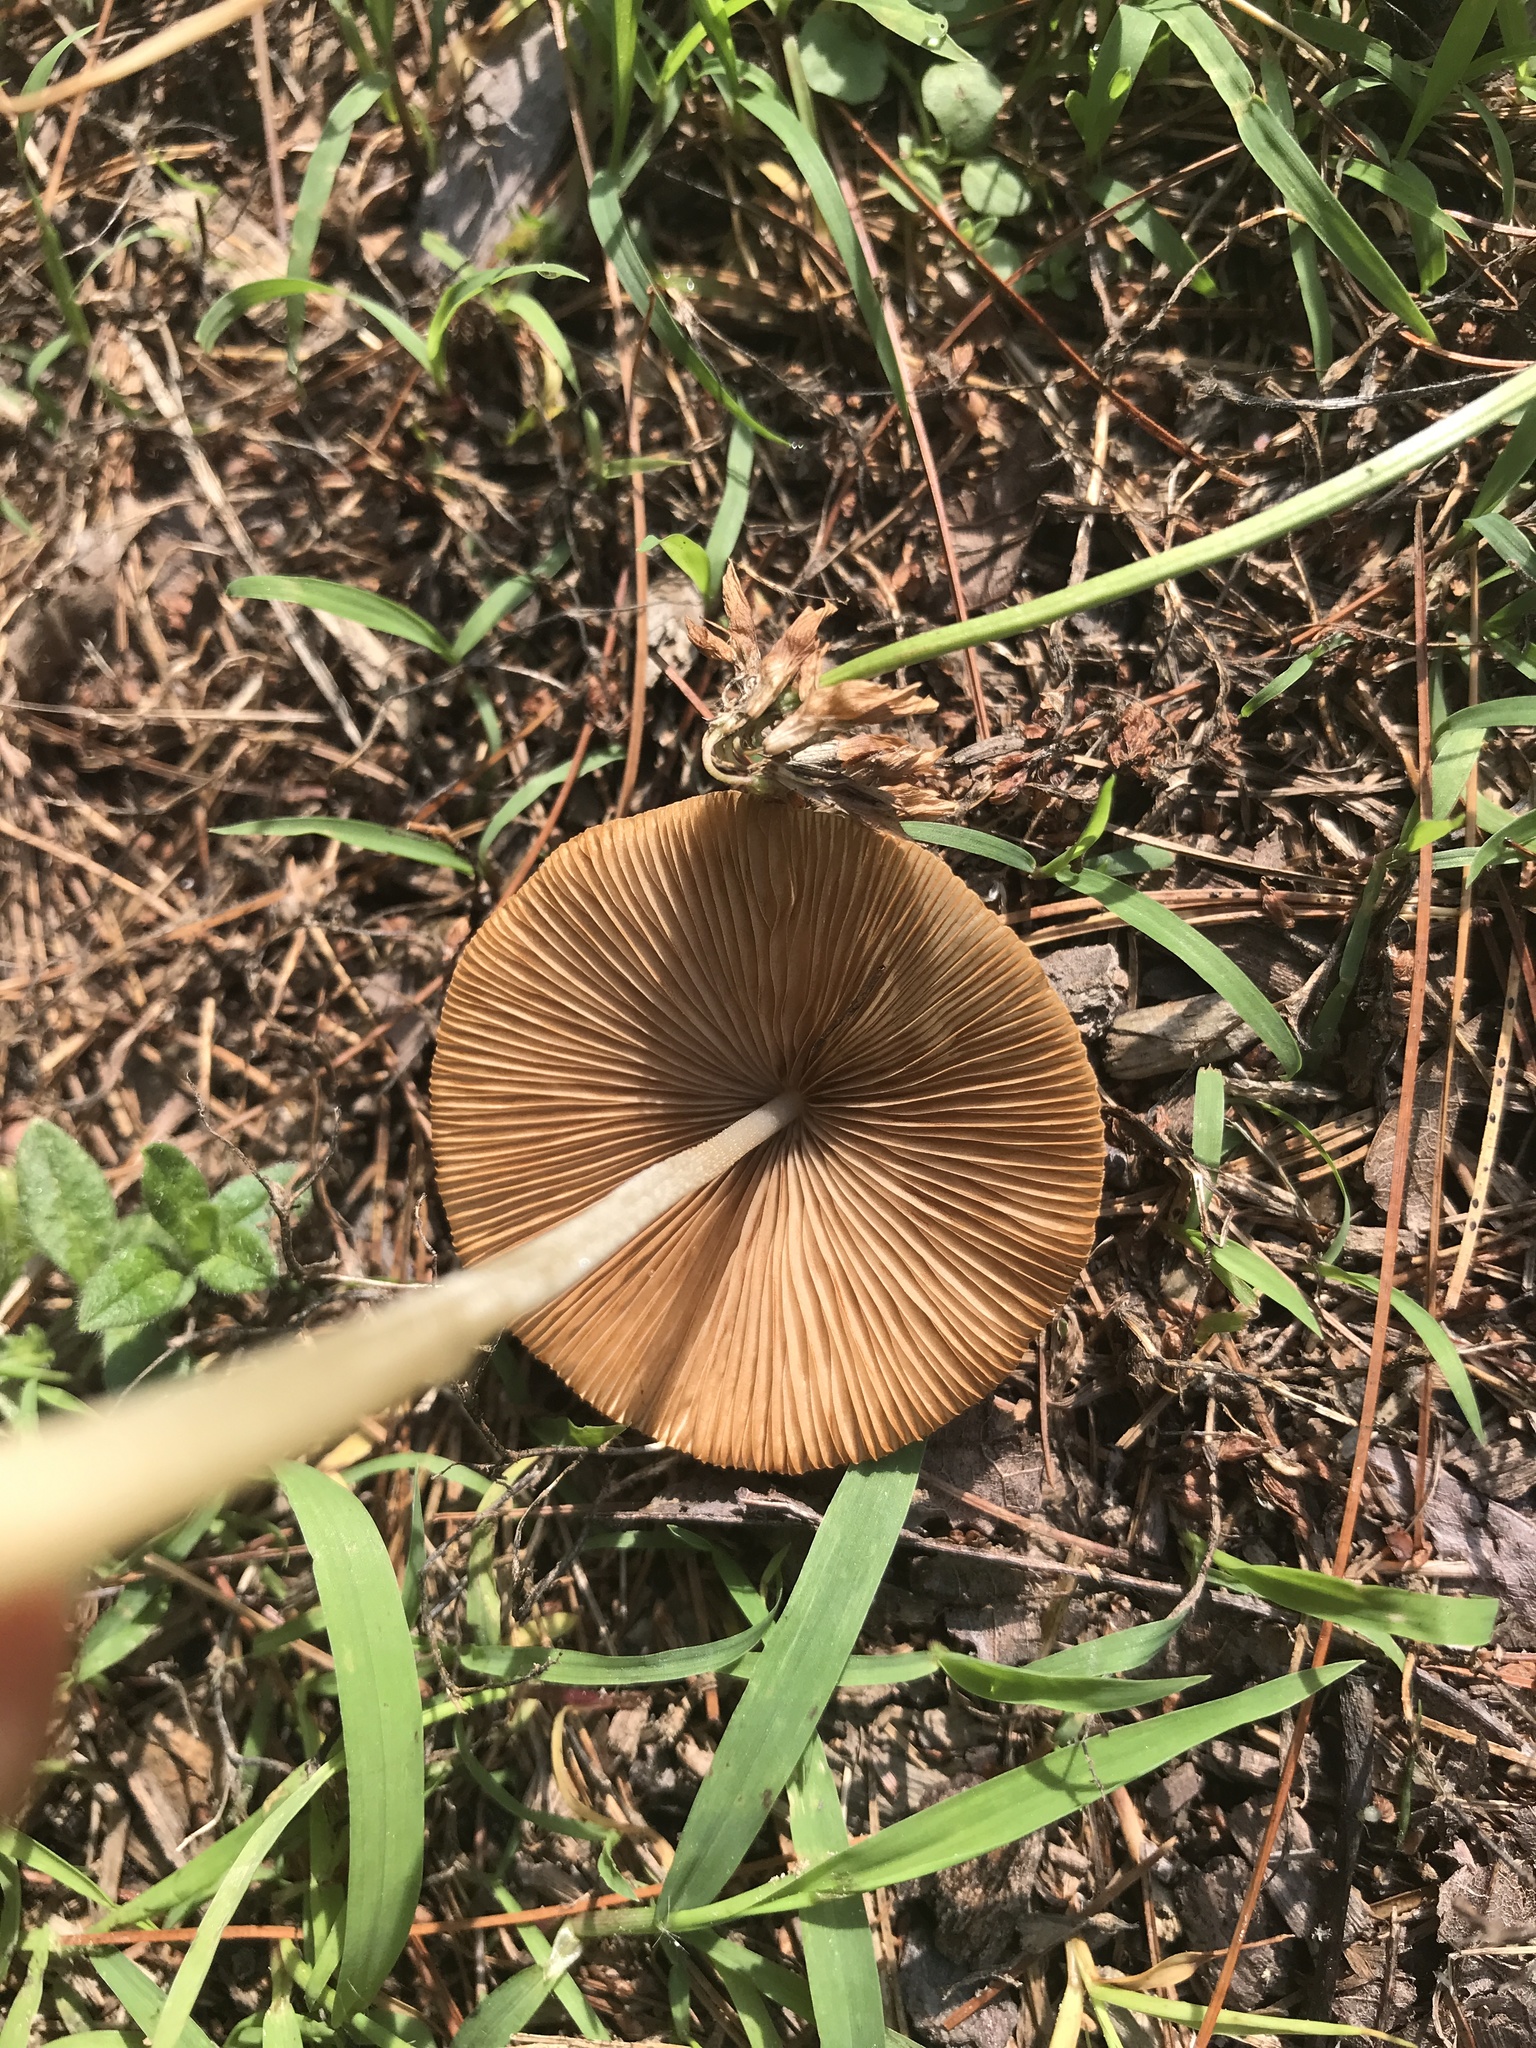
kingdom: Fungi
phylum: Basidiomycota
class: Agaricomycetes
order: Agaricales
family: Bolbitiaceae
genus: Conocybe
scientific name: Conocybe apala
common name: Milky conecap
